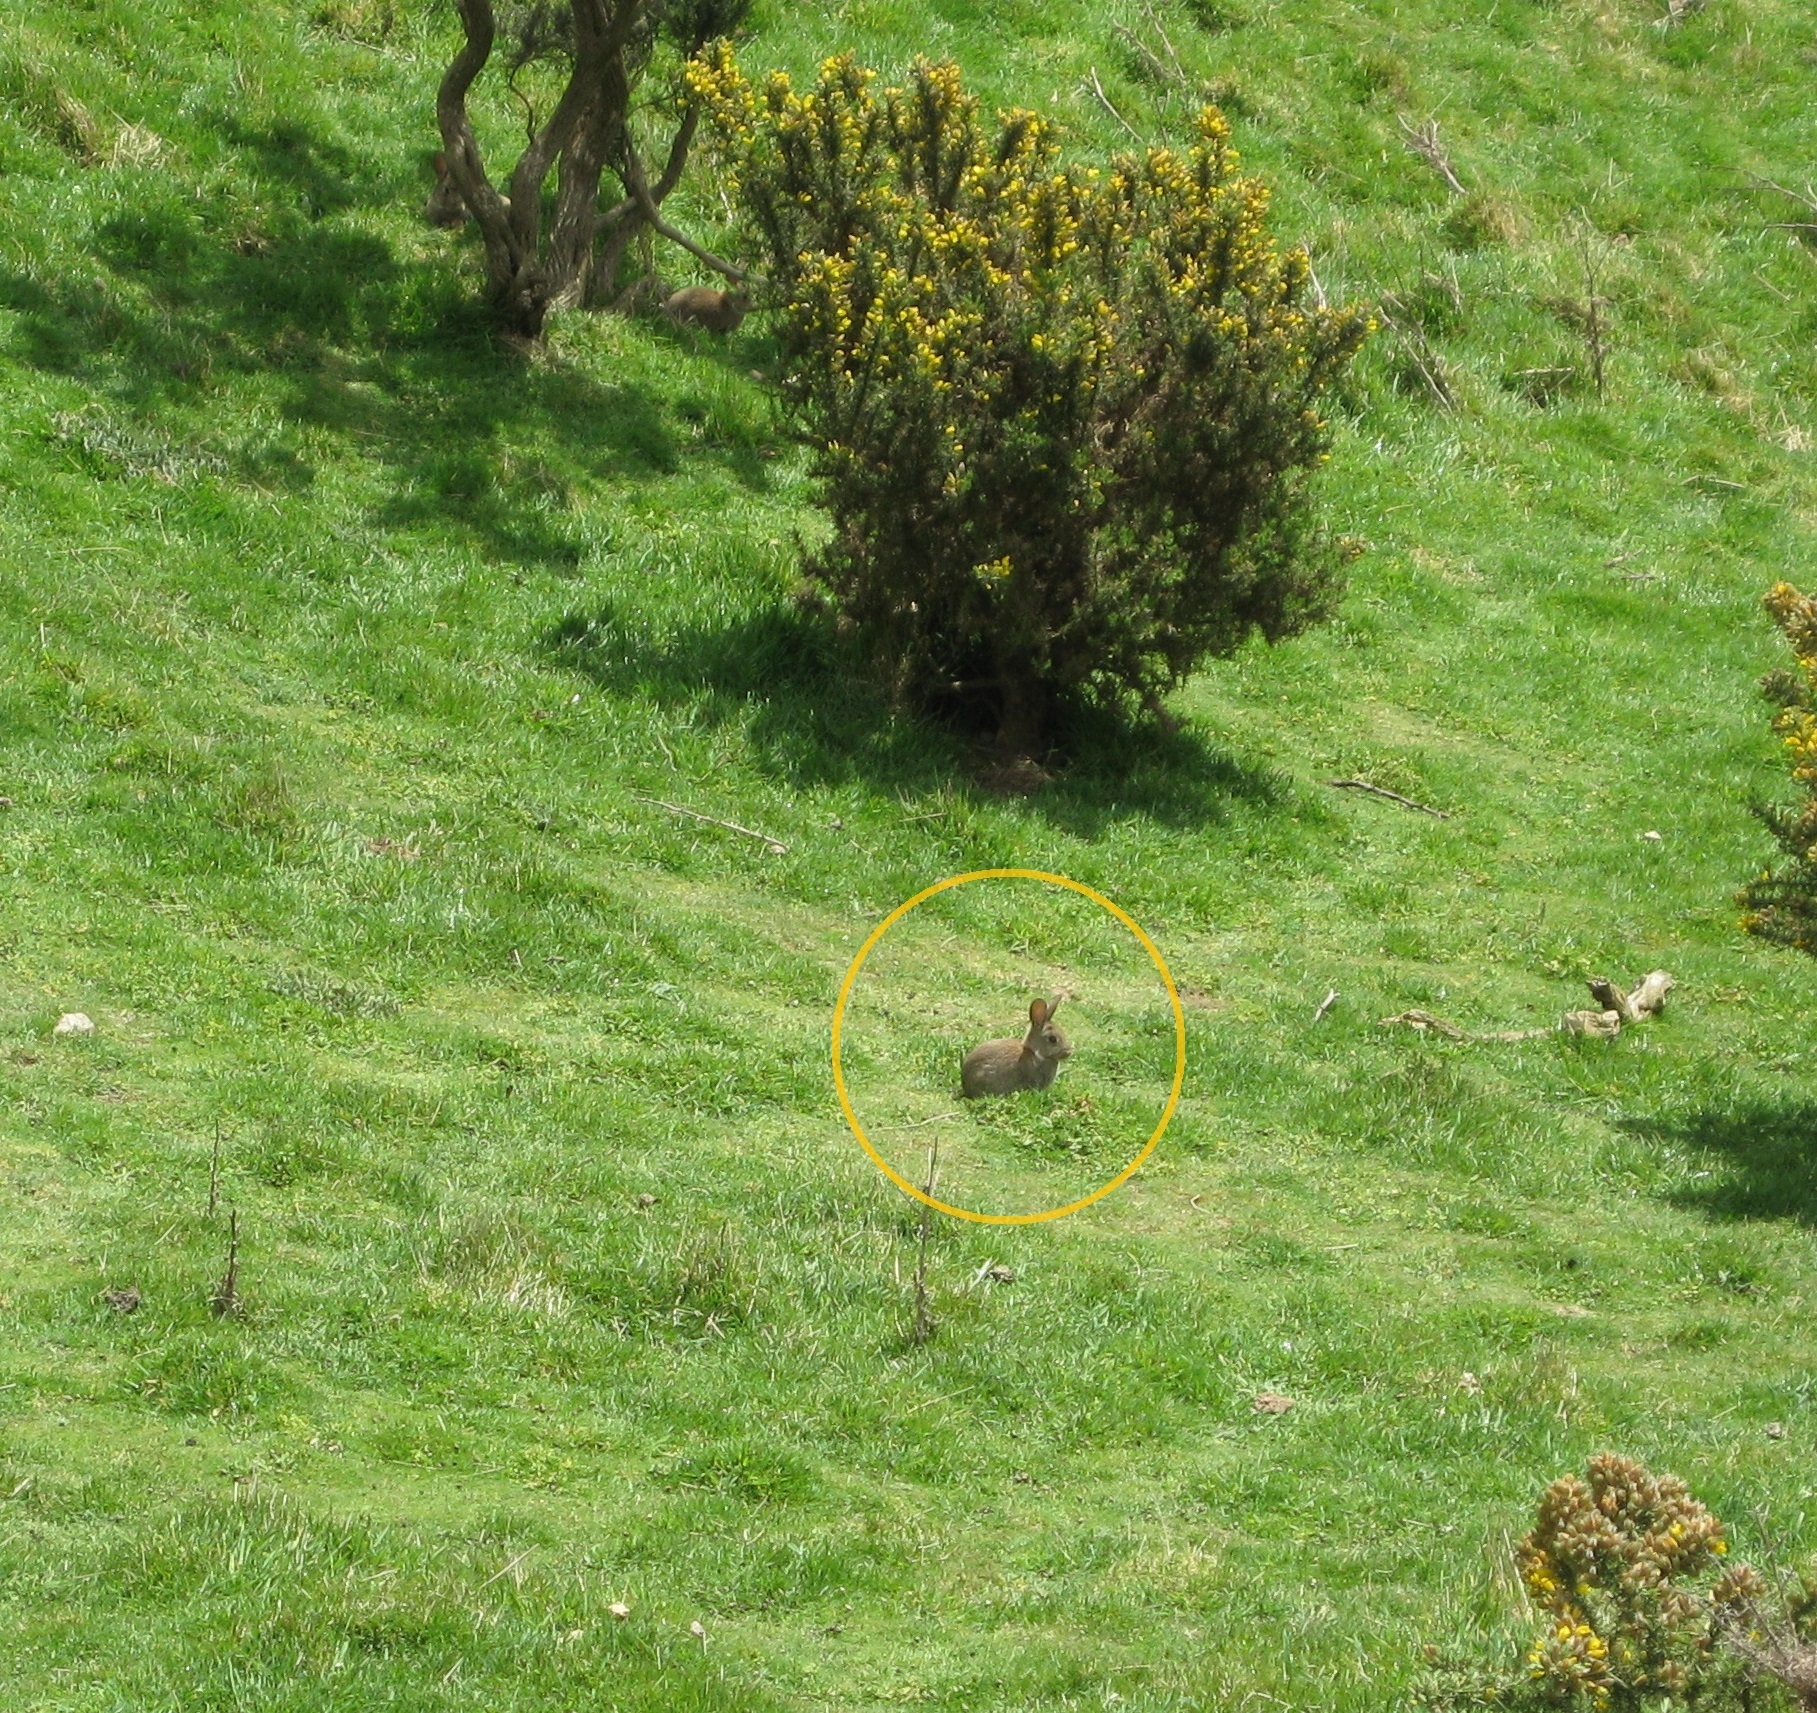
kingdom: Animalia
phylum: Chordata
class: Mammalia
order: Lagomorpha
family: Leporidae
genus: Oryctolagus
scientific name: Oryctolagus cuniculus
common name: European rabbit
